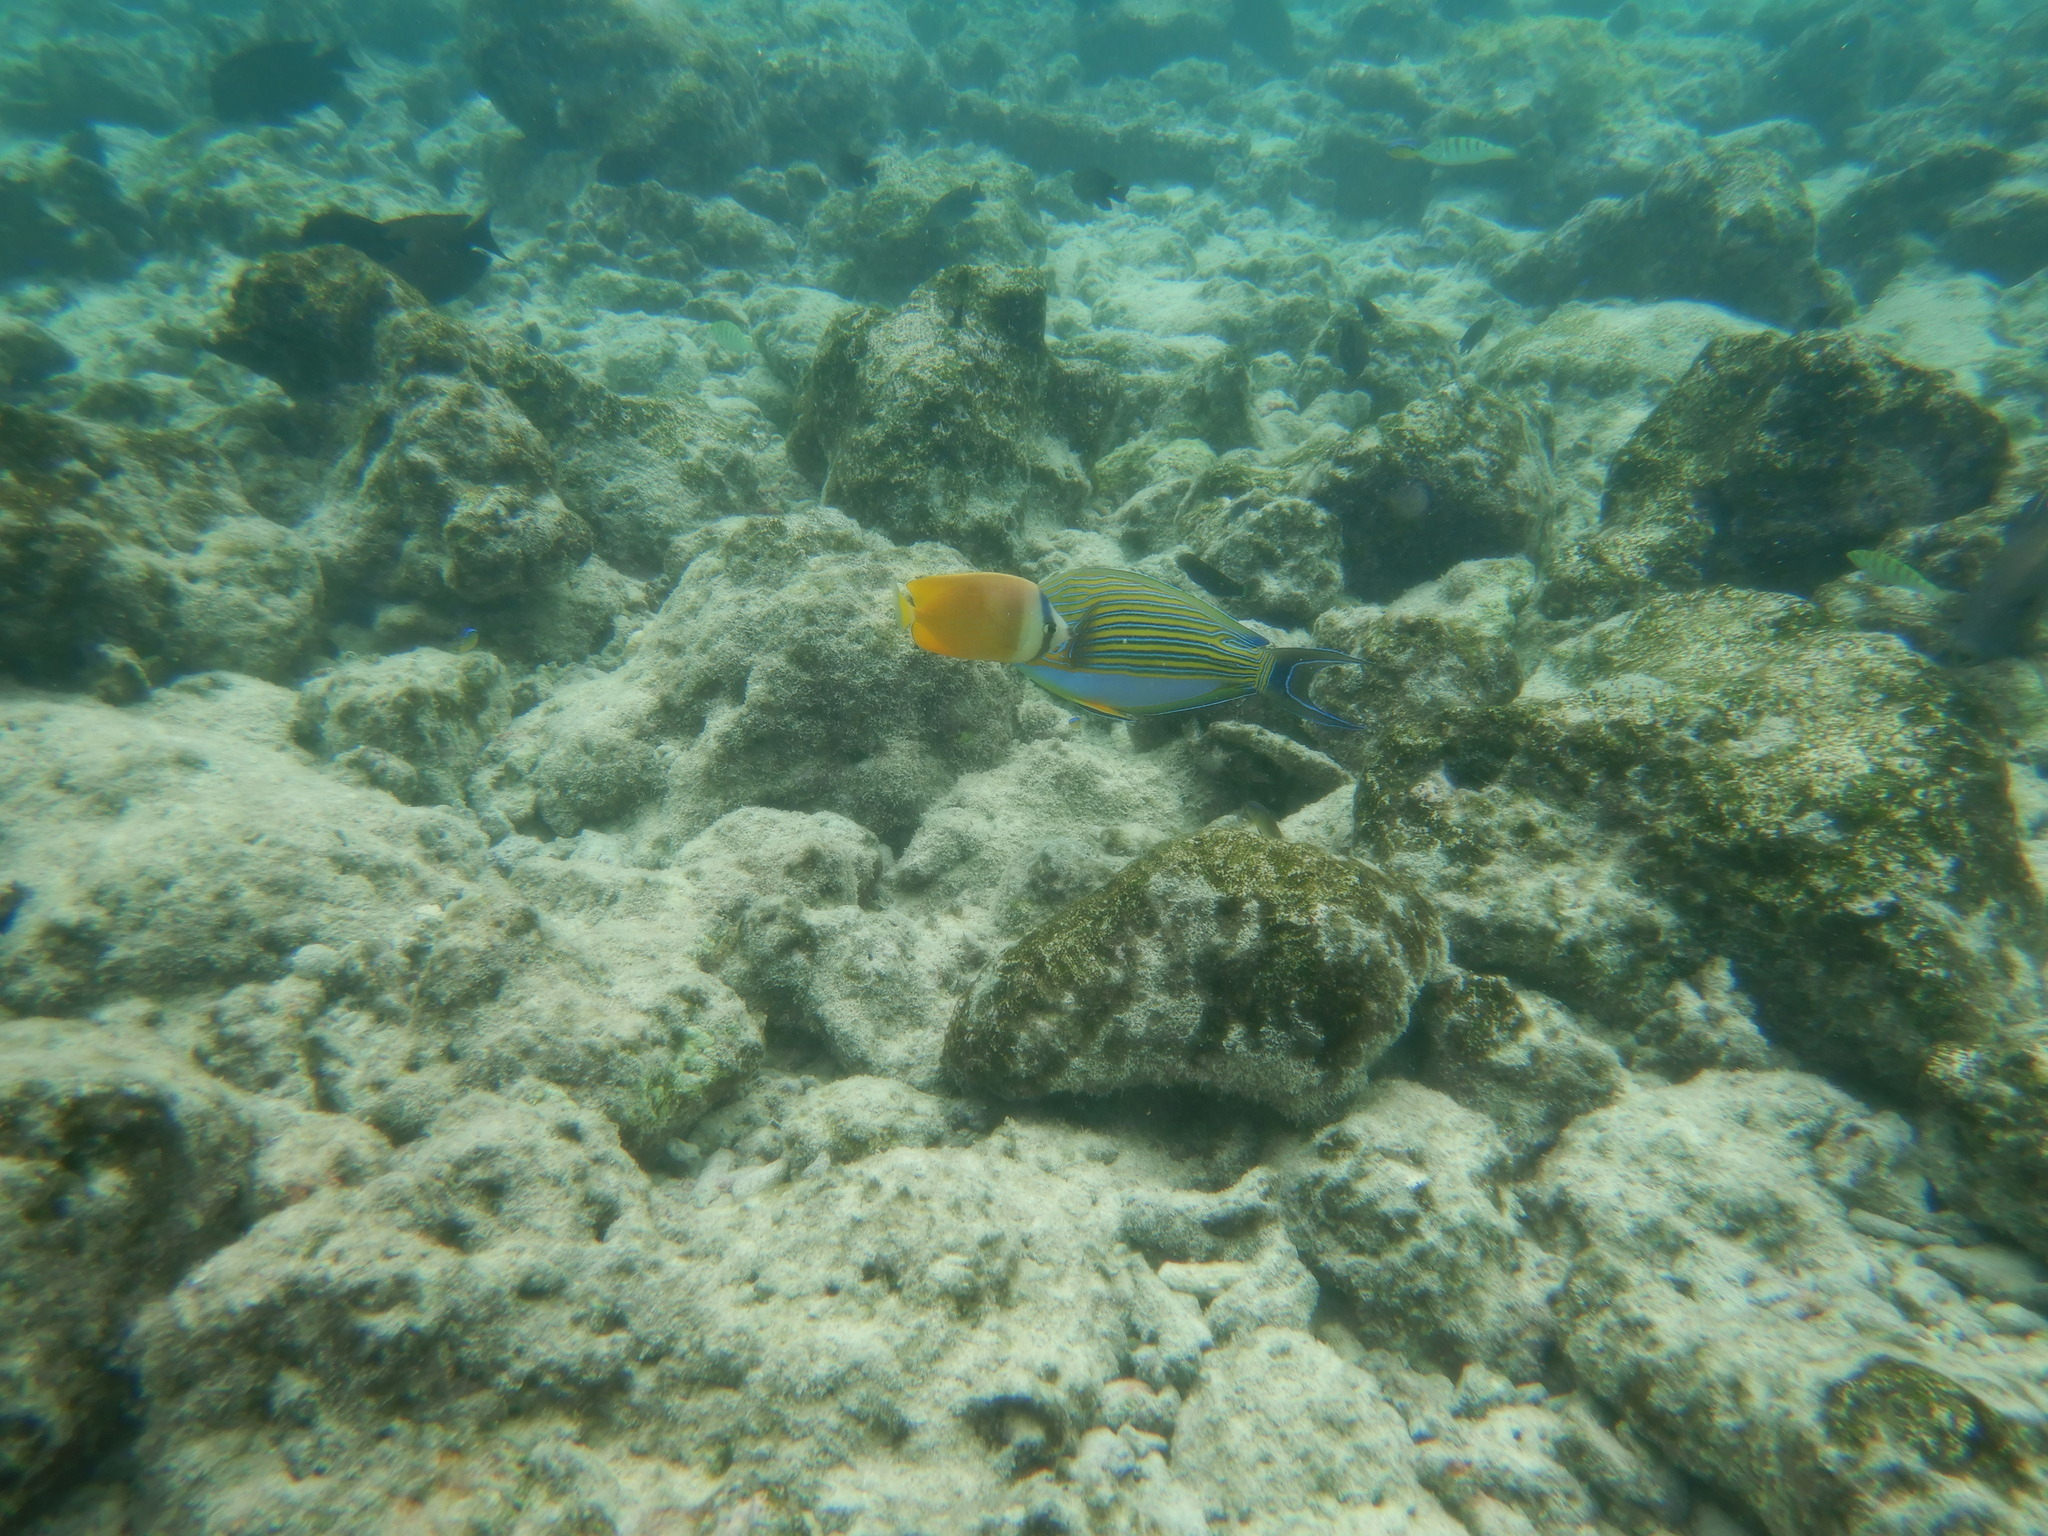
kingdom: Animalia
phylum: Chordata
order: Perciformes
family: Chaetodontidae
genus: Chaetodon
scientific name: Chaetodon kleinii
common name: Klein's butterflyfish
